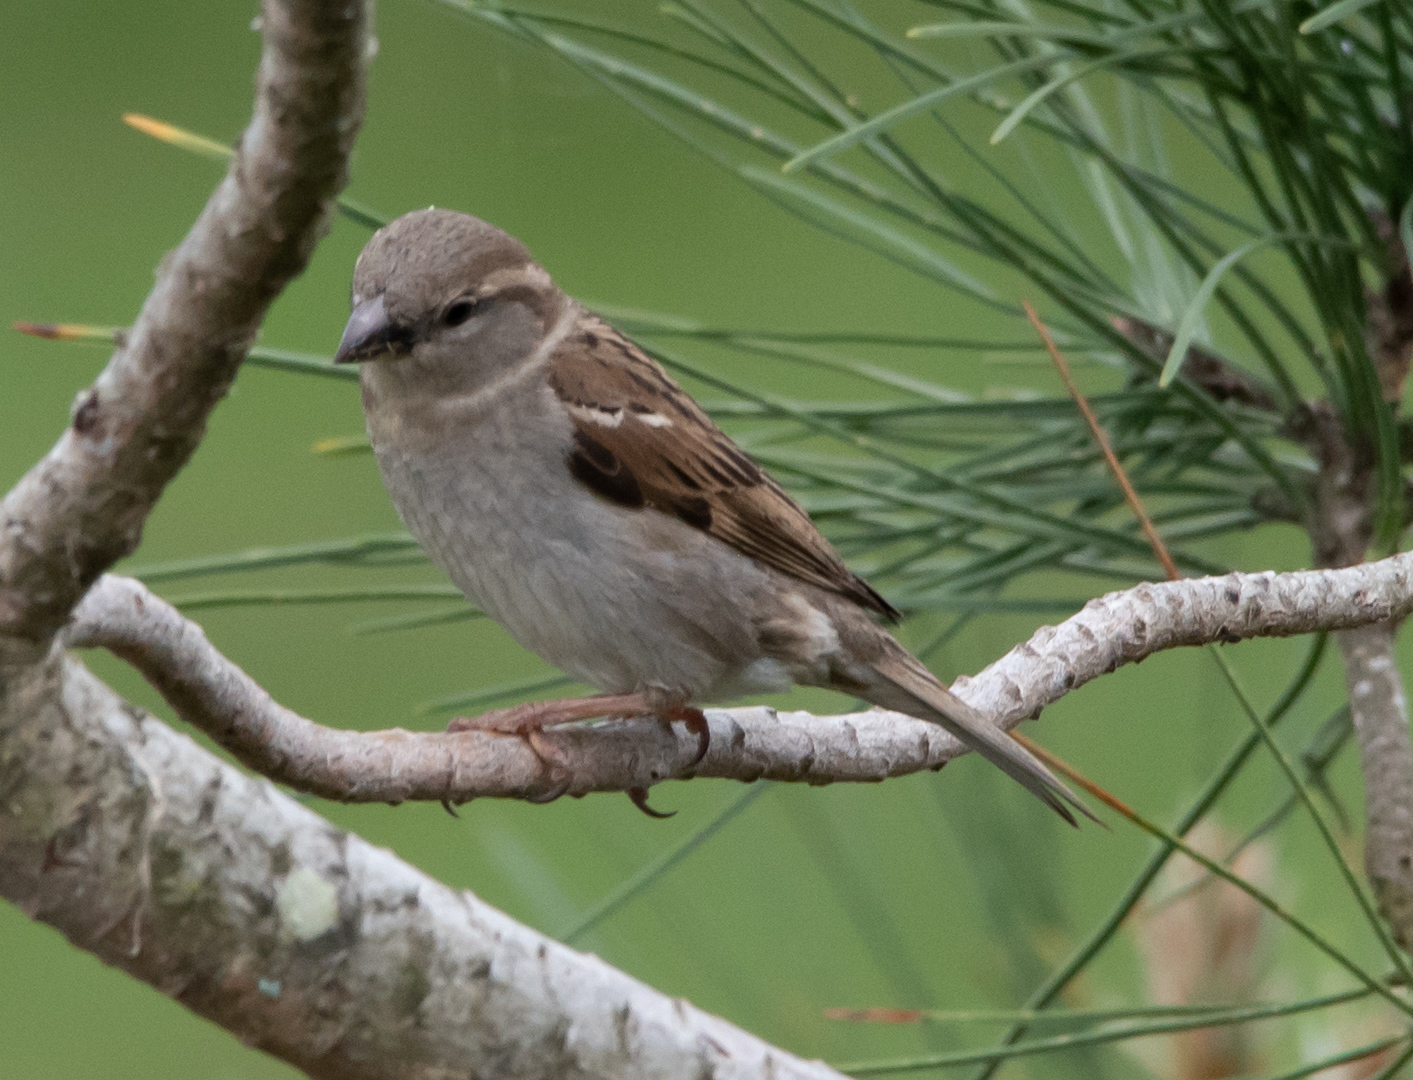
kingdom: Animalia
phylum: Chordata
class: Aves
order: Passeriformes
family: Passeridae
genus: Passer
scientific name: Passer domesticus
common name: House sparrow
